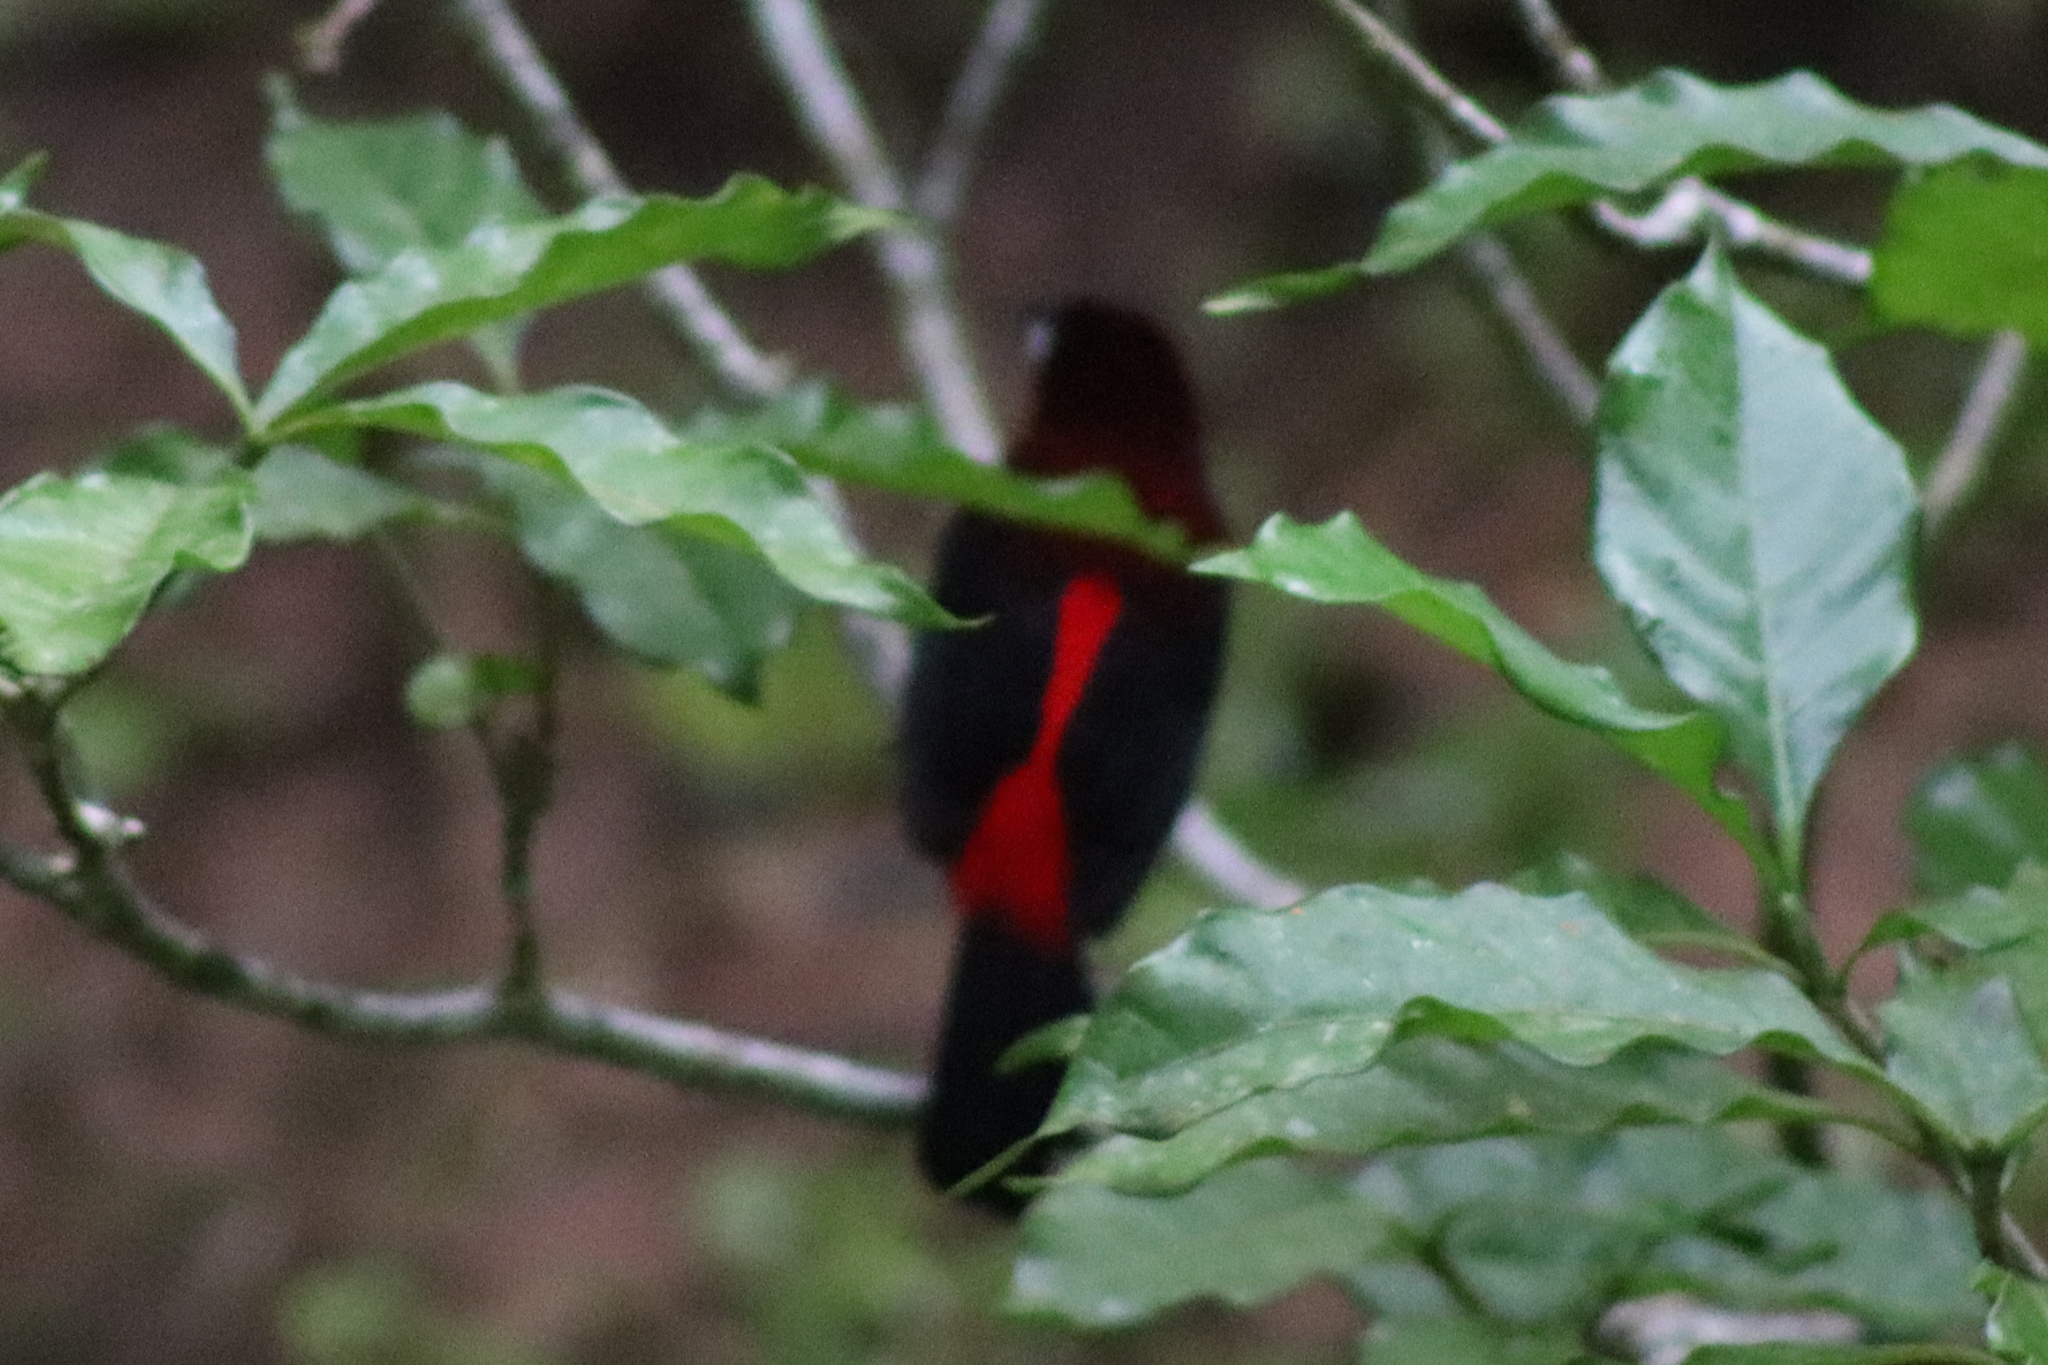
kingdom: Animalia
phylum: Chordata
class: Aves
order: Passeriformes
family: Thraupidae
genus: Ramphocelus
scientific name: Ramphocelus dimidiatus
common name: Crimson-backed tanager
